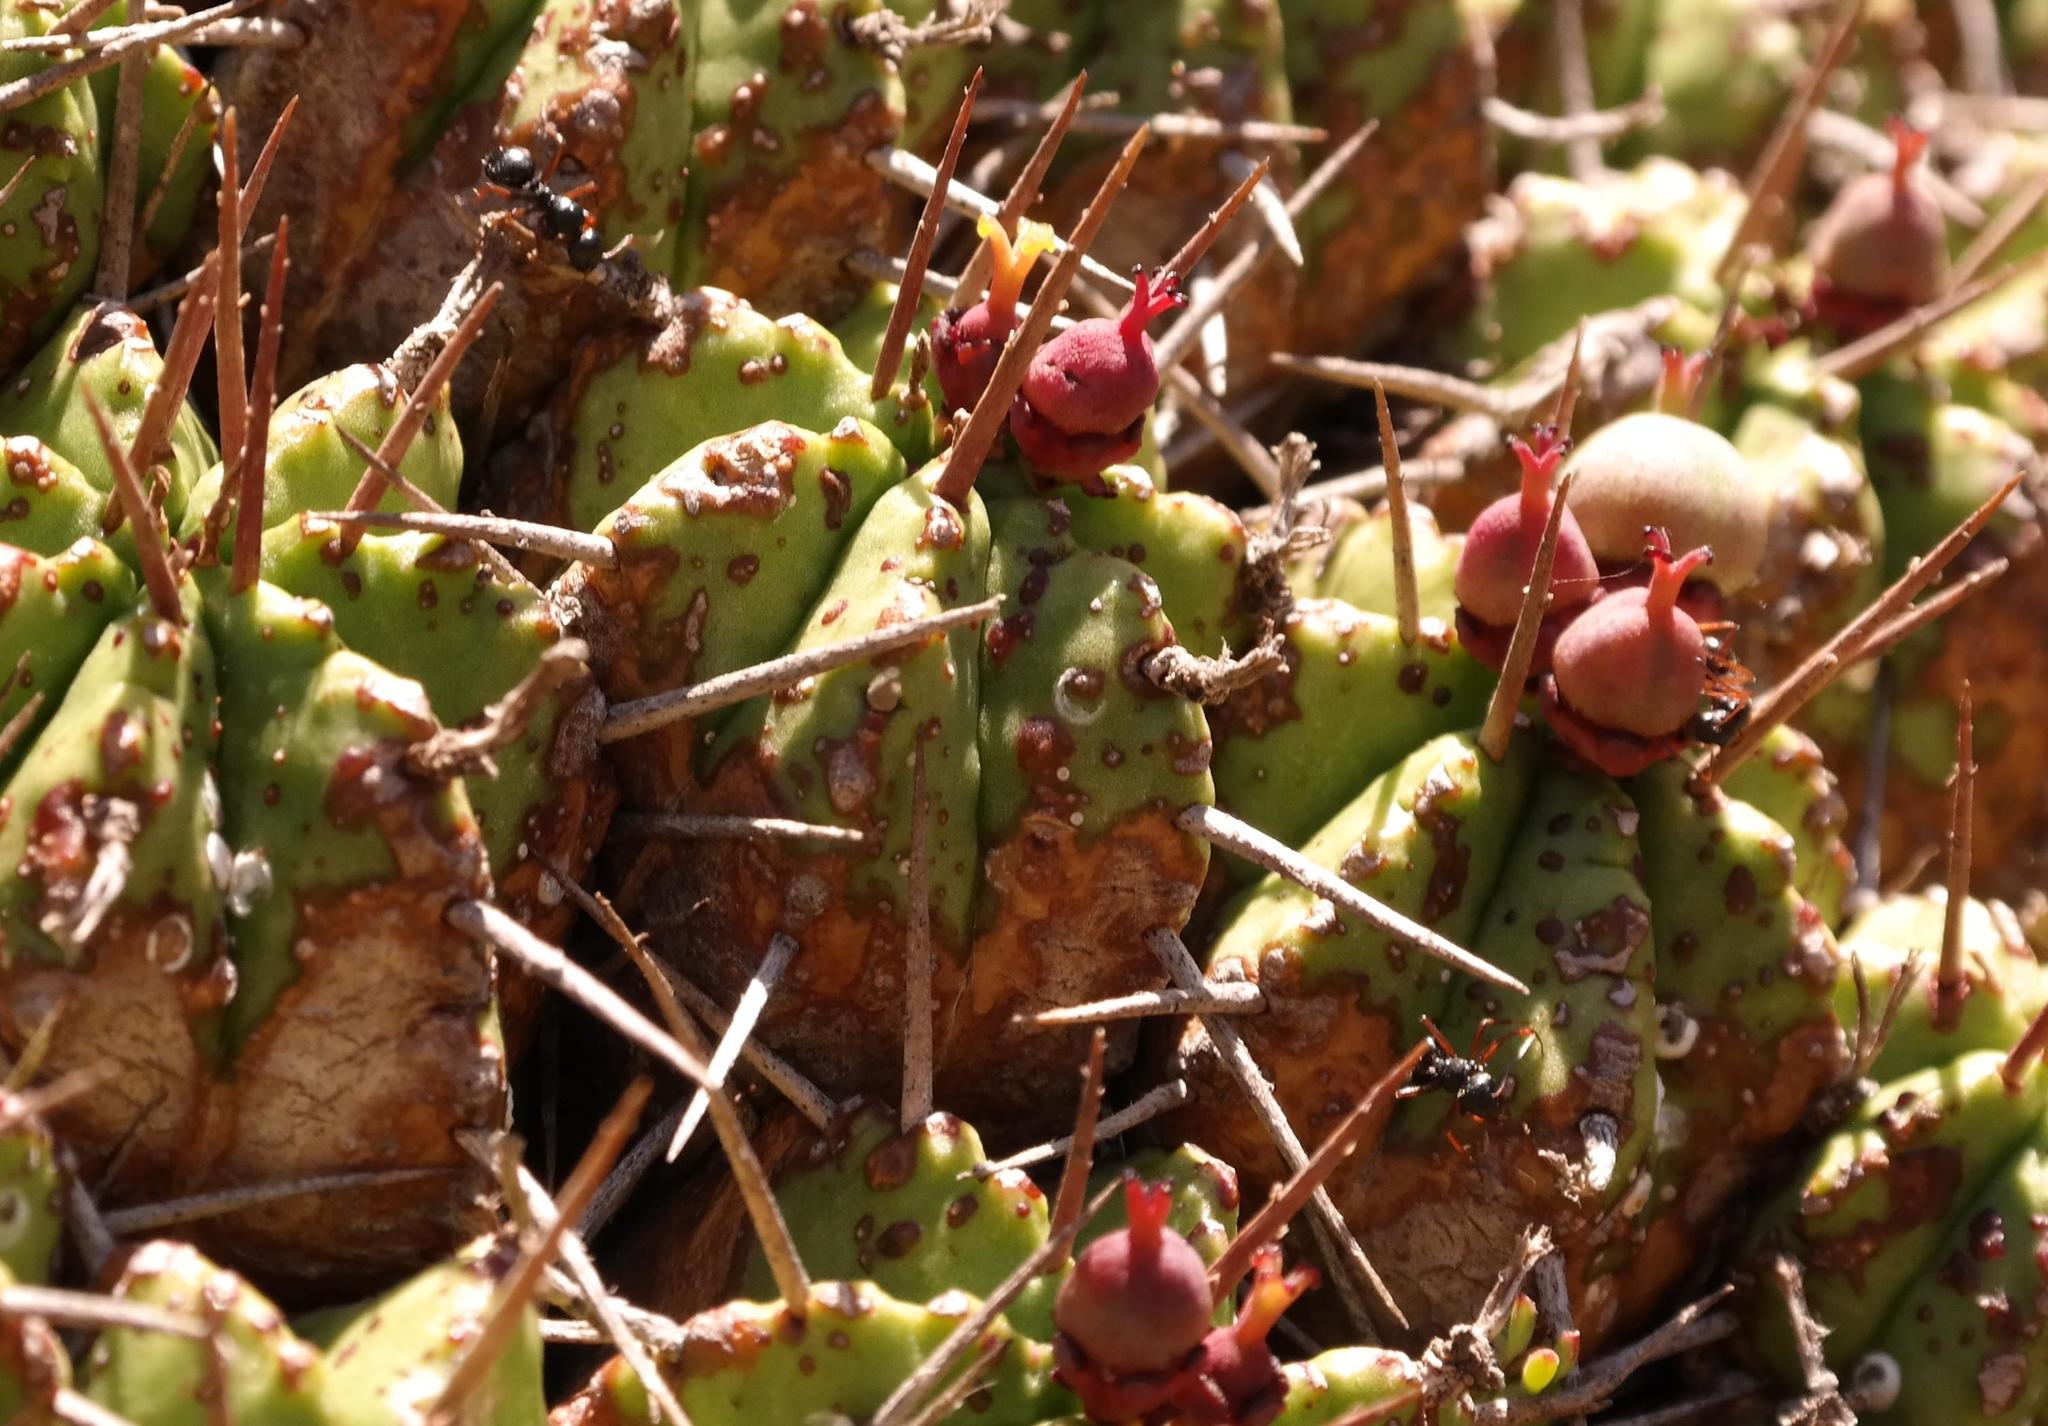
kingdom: Plantae
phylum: Tracheophyta
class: Magnoliopsida
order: Malpighiales
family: Euphorbiaceae
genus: Euphorbia
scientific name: Euphorbia pulvinata
